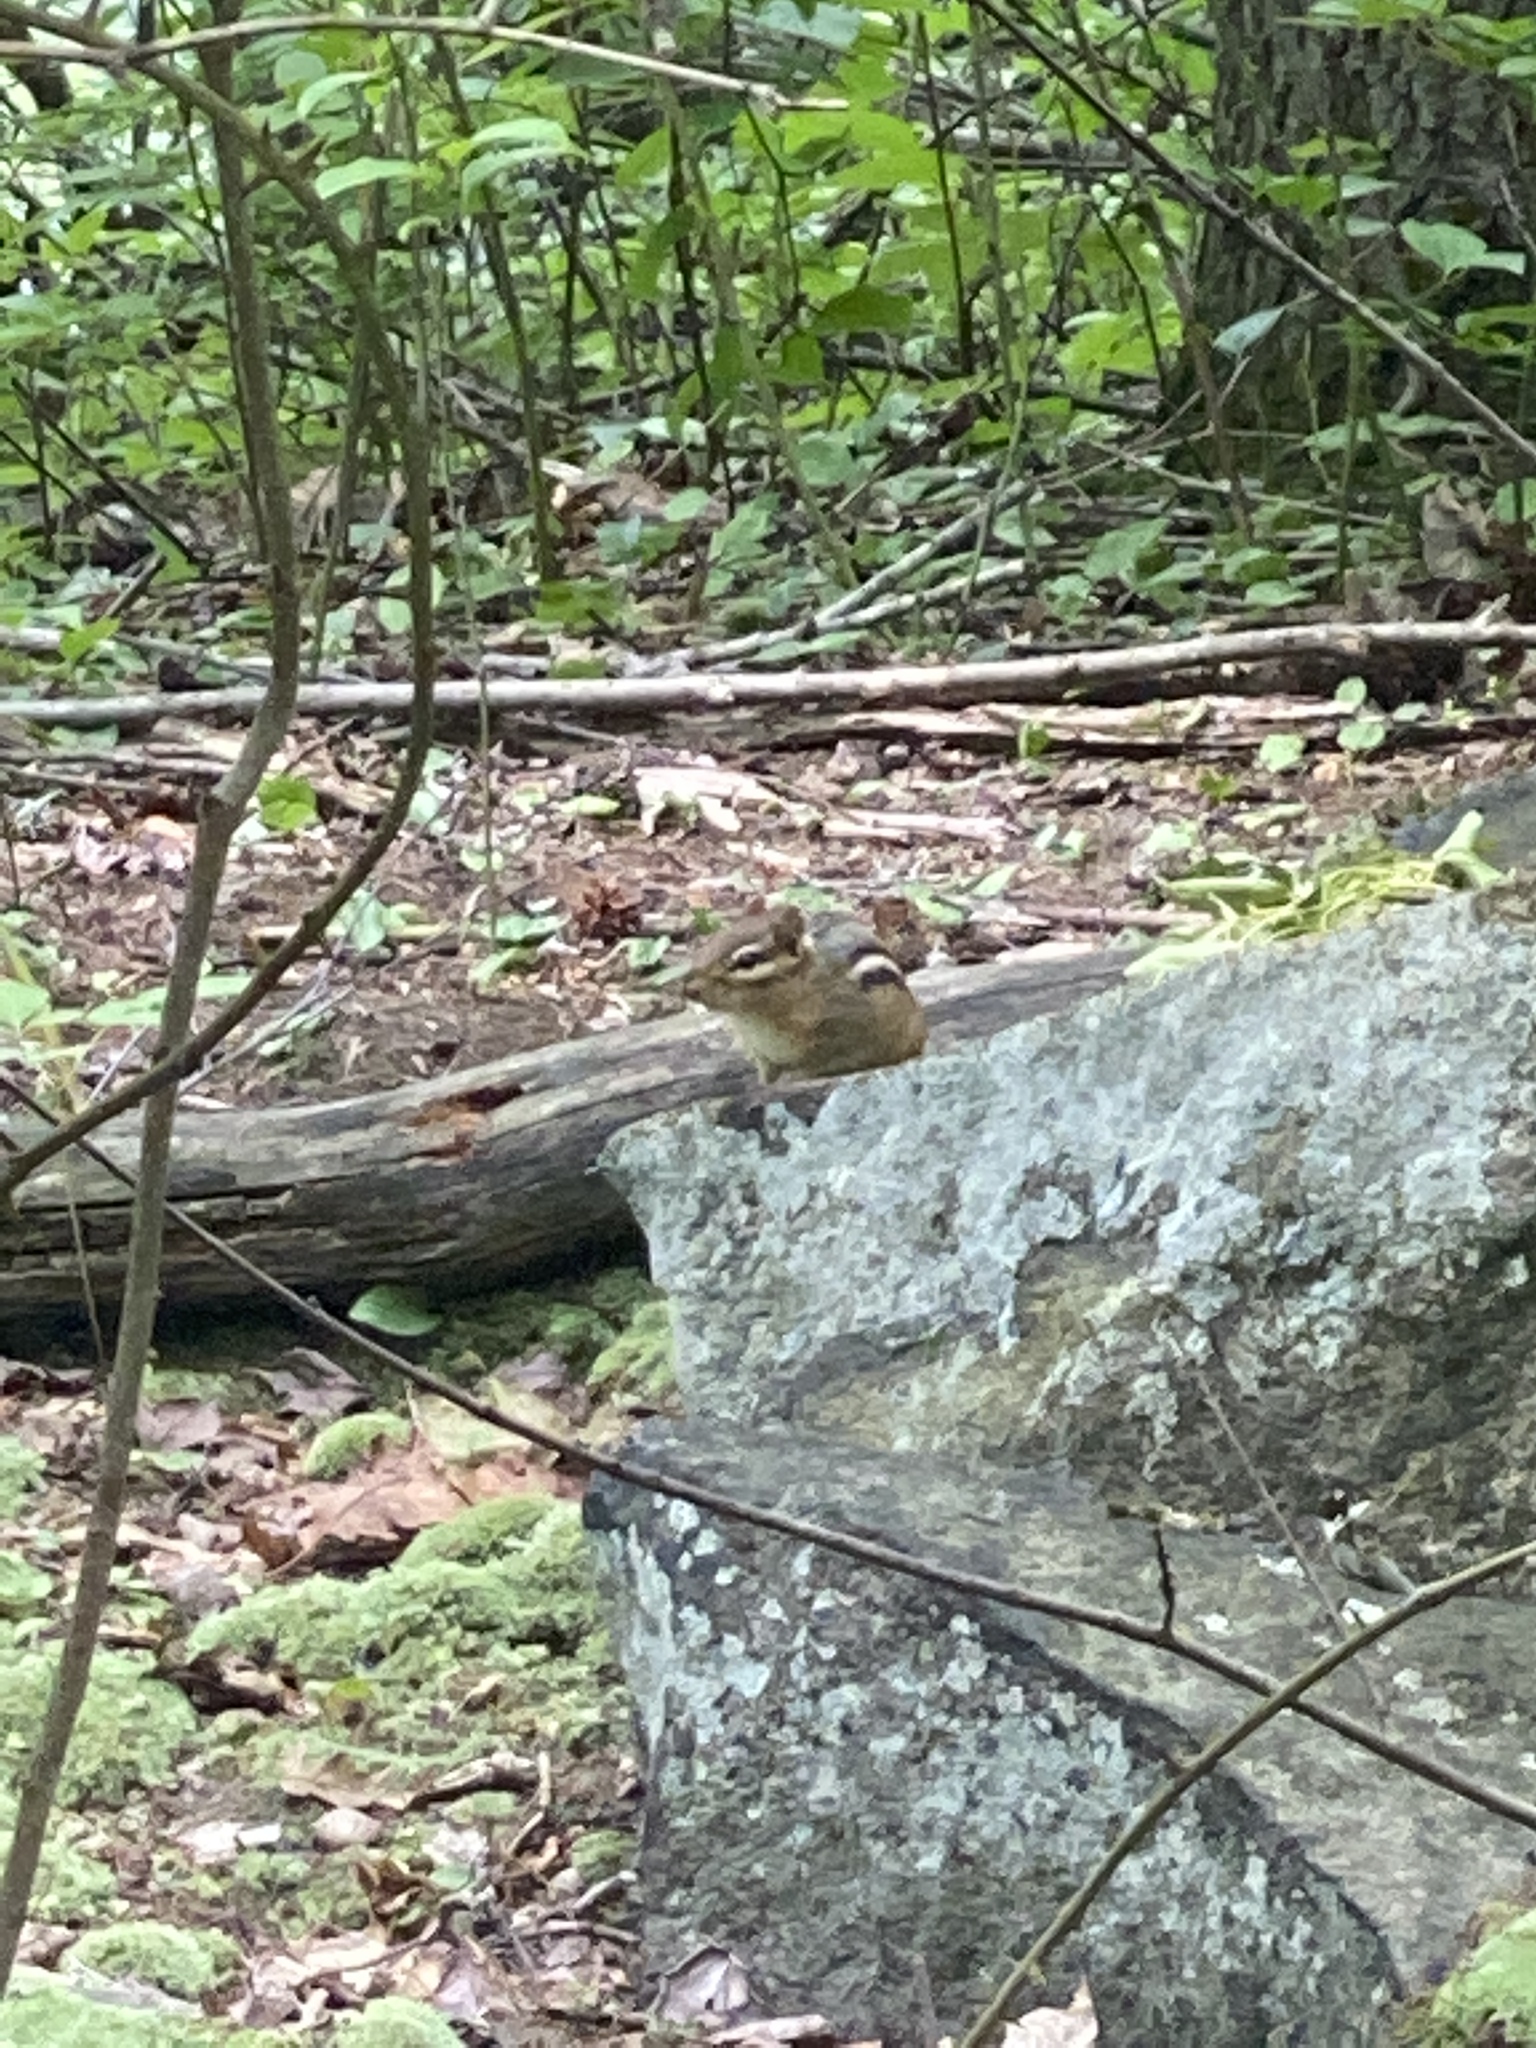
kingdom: Animalia
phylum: Chordata
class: Mammalia
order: Rodentia
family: Sciuridae
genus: Tamias
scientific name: Tamias striatus
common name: Eastern chipmunk
